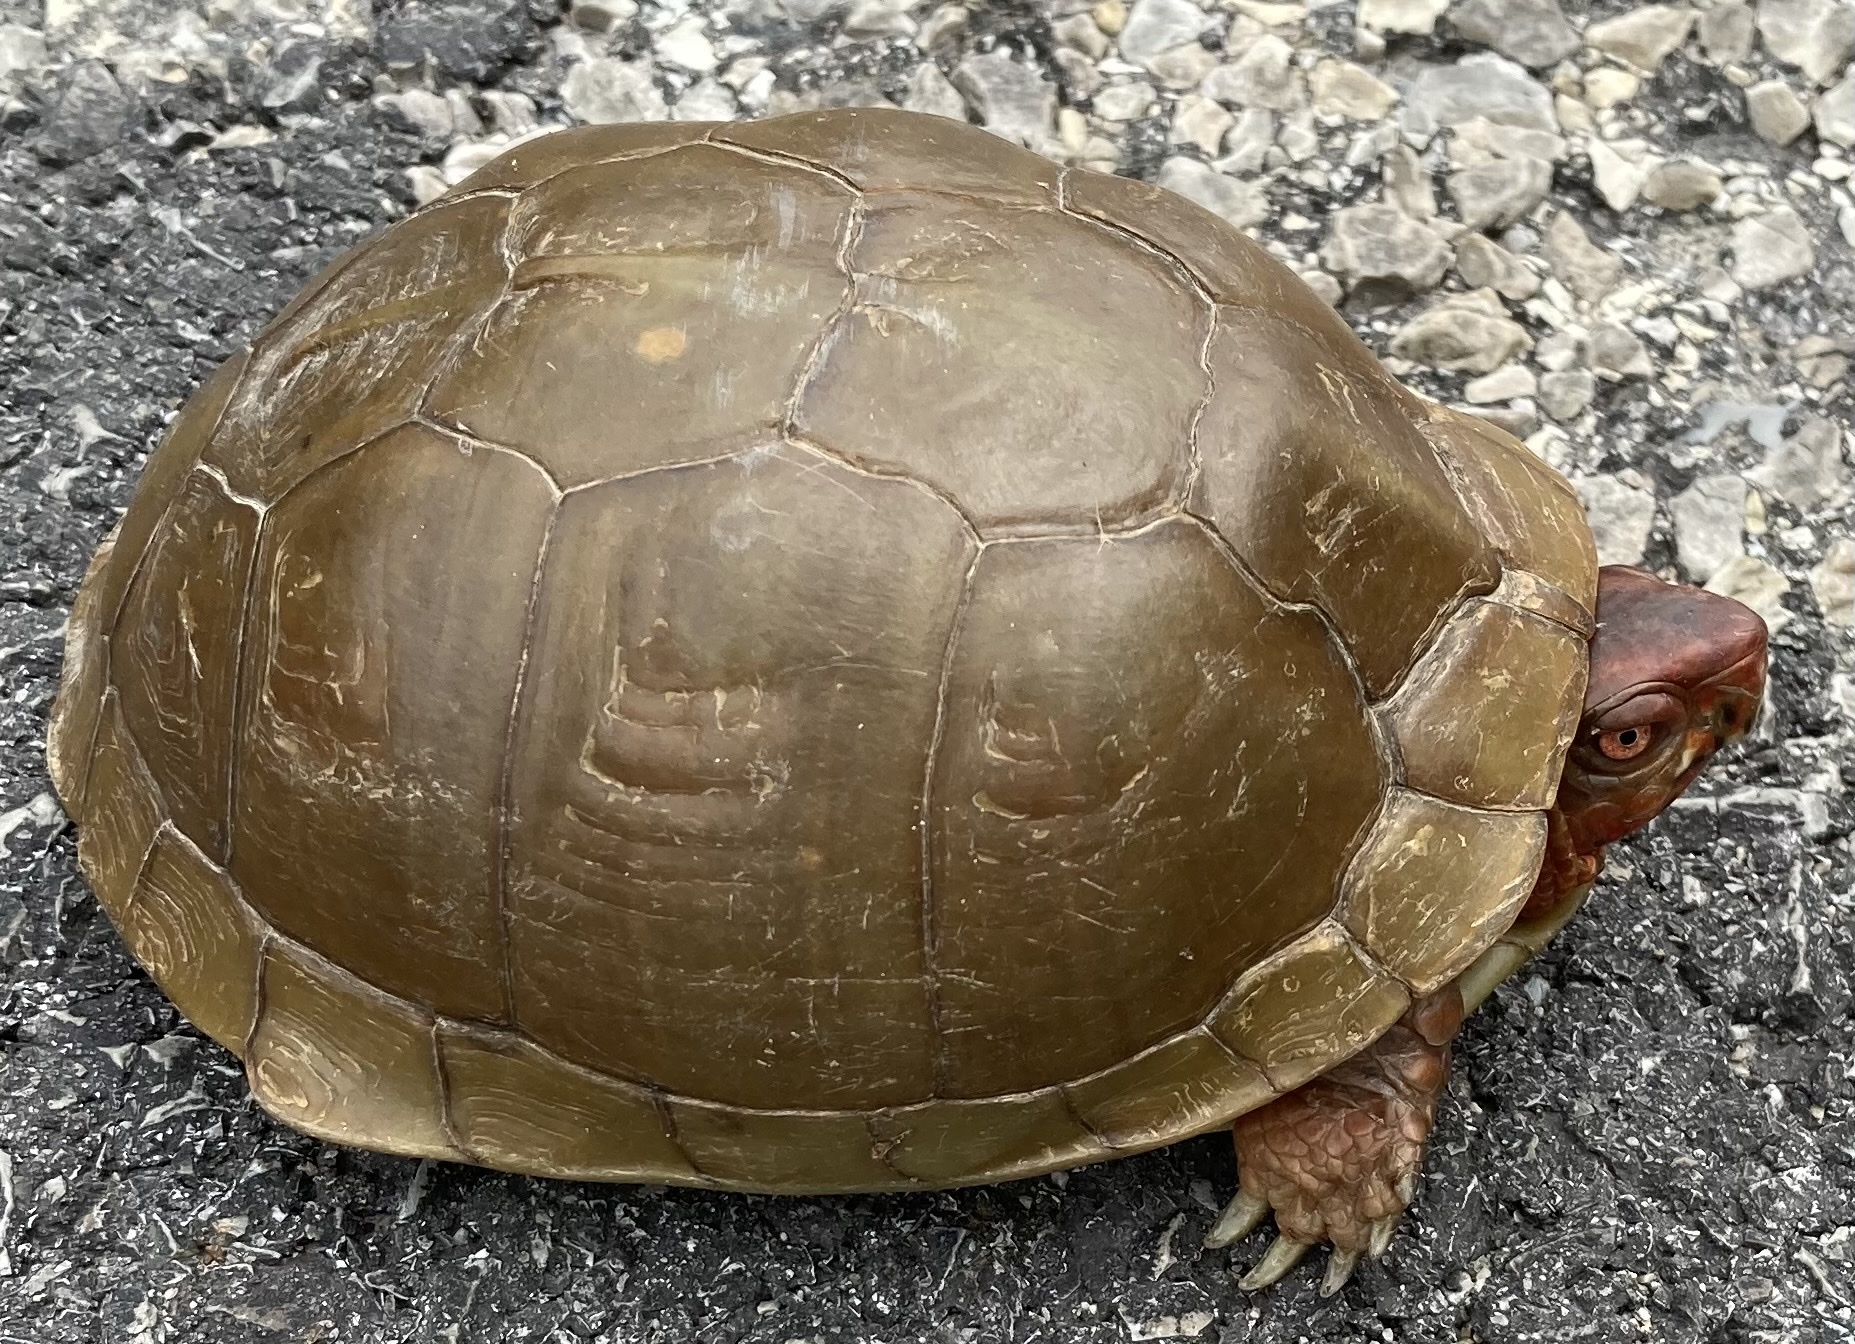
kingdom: Animalia
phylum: Chordata
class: Testudines
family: Emydidae
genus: Terrapene
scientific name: Terrapene carolina
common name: Common box turtle
